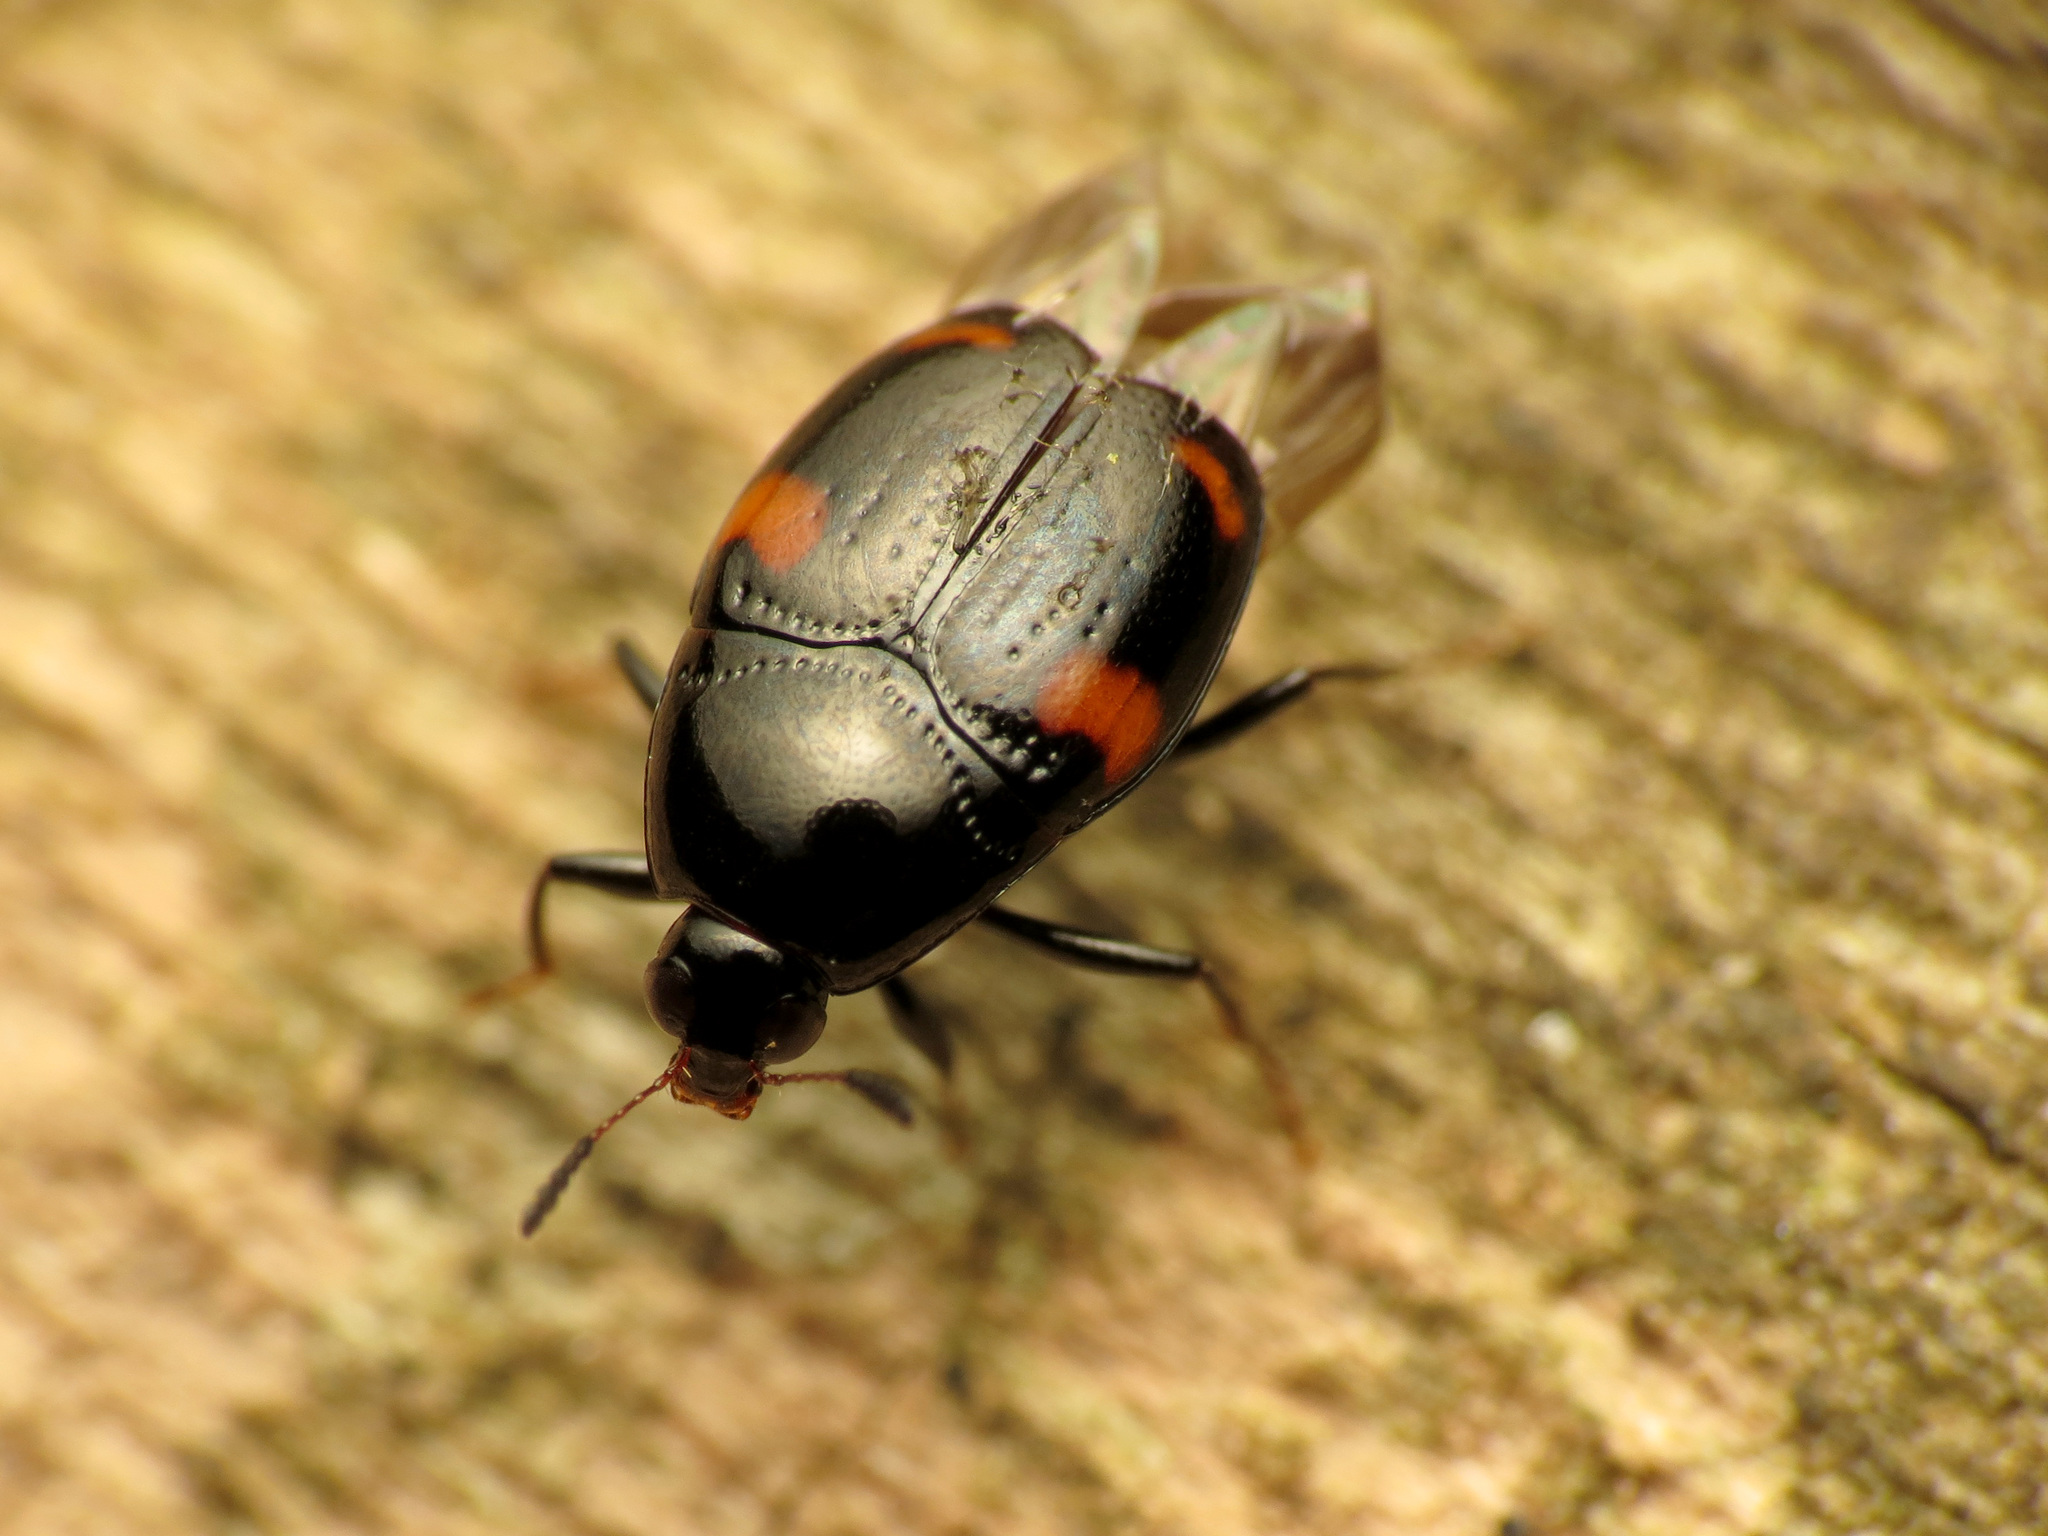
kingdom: Animalia
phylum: Arthropoda
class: Insecta
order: Coleoptera
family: Staphylinidae
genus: Scaphidium
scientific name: Scaphidium quadriguttatum
